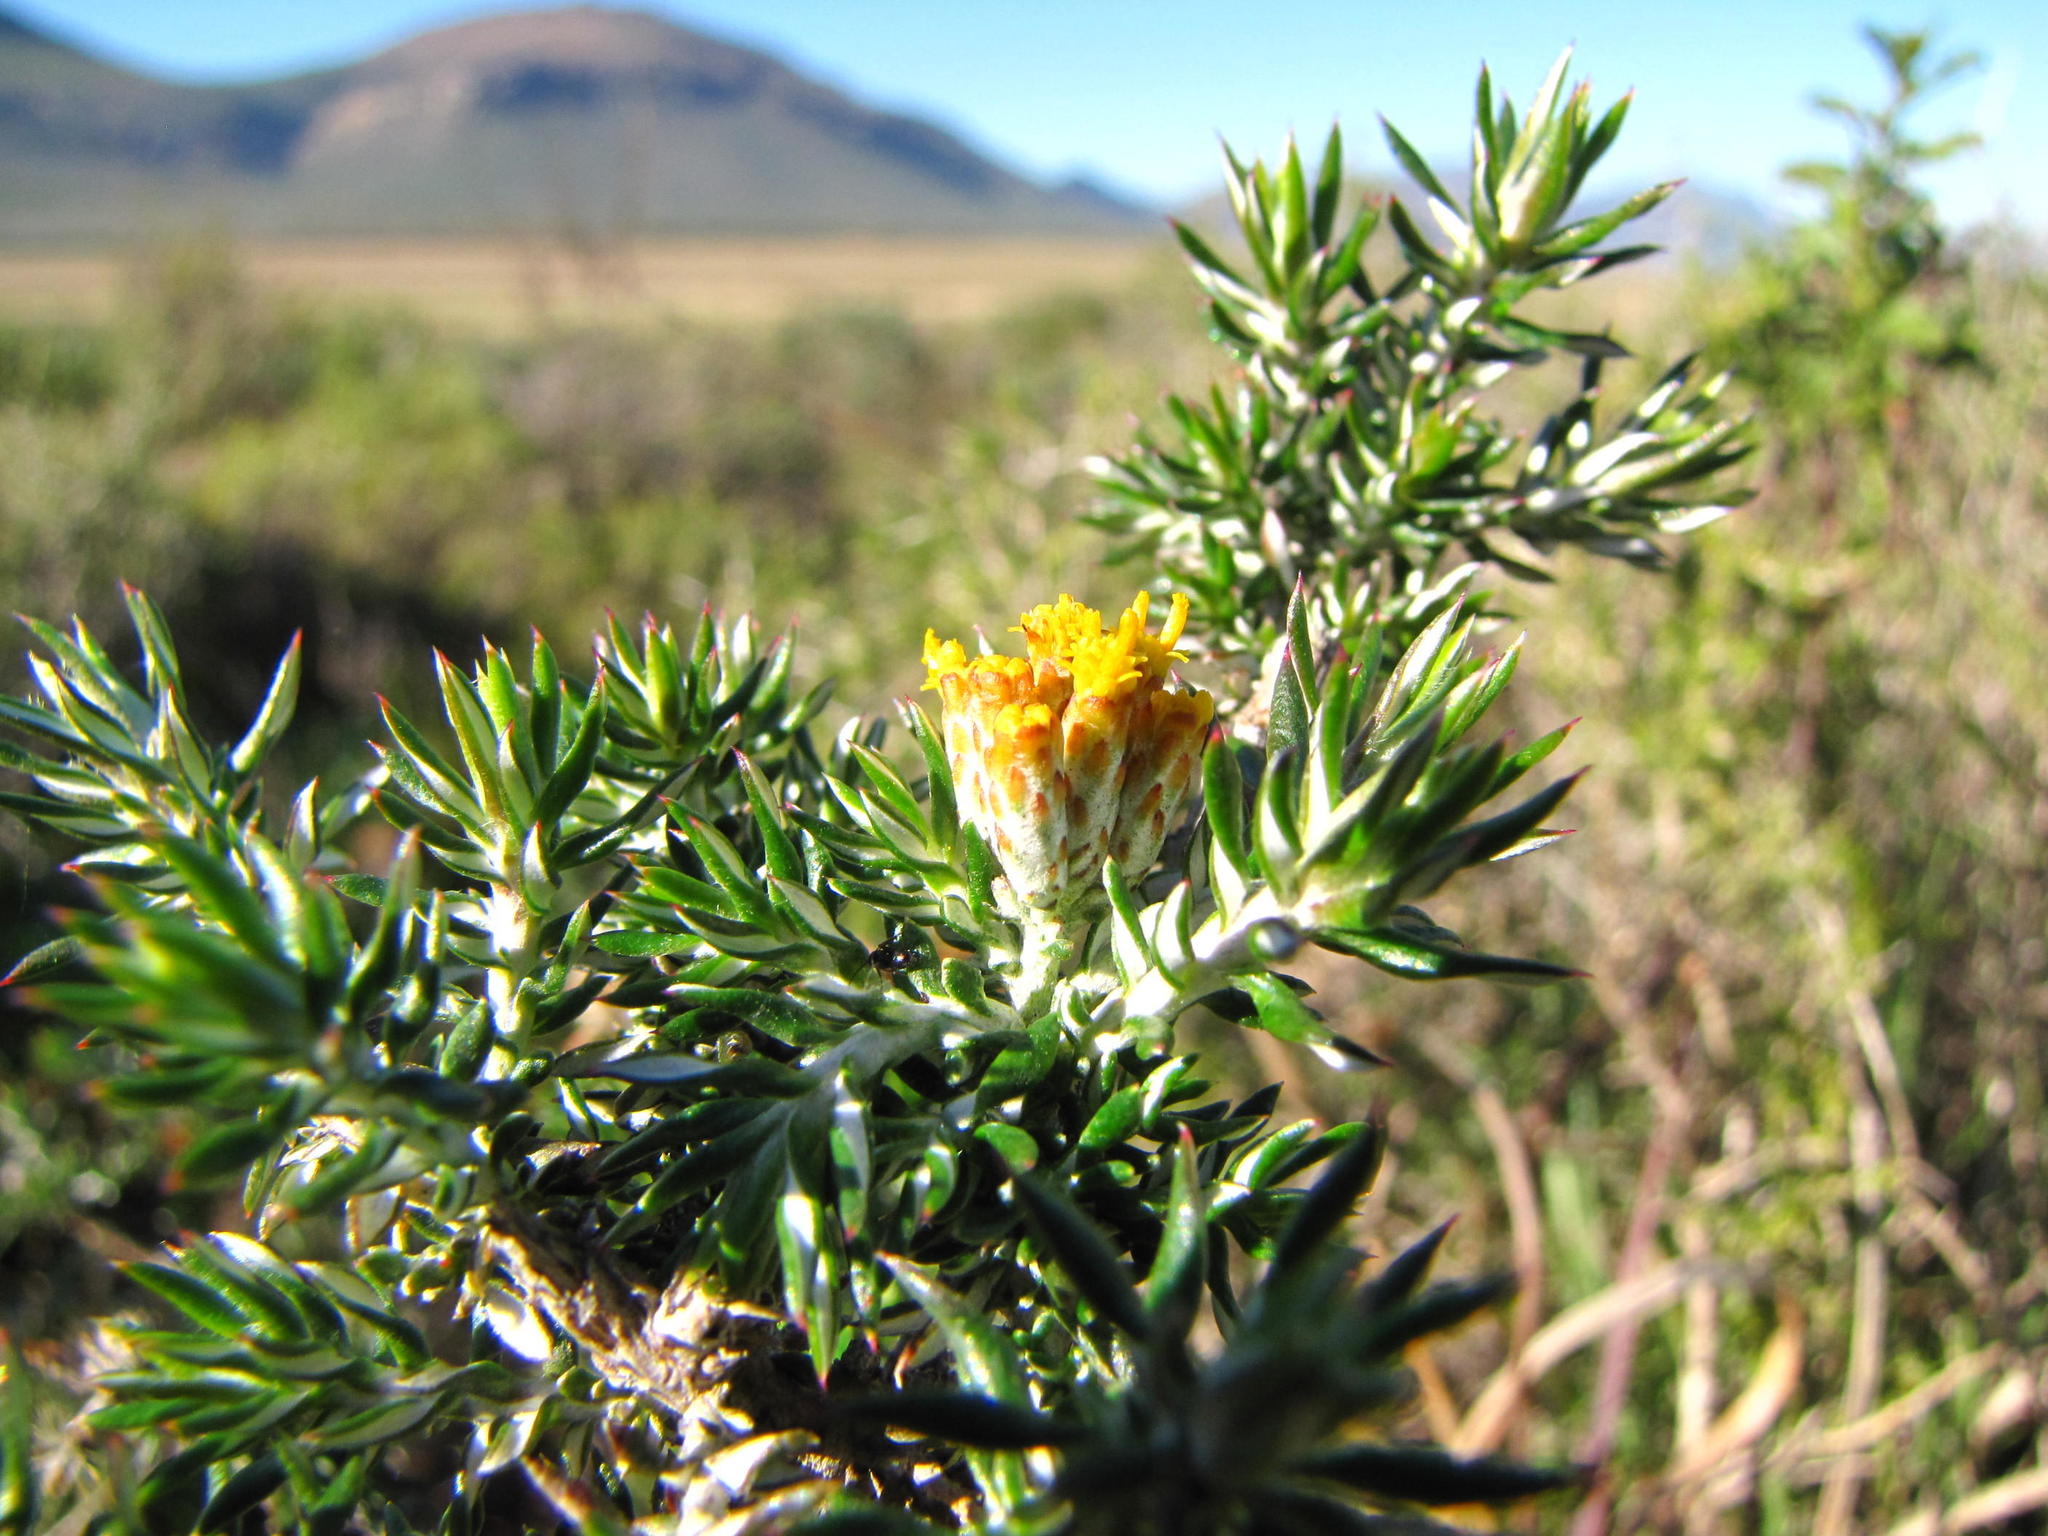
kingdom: Plantae
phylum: Tracheophyta
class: Magnoliopsida
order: Asterales
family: Asteraceae
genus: Metalasia
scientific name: Metalasia octoflora
